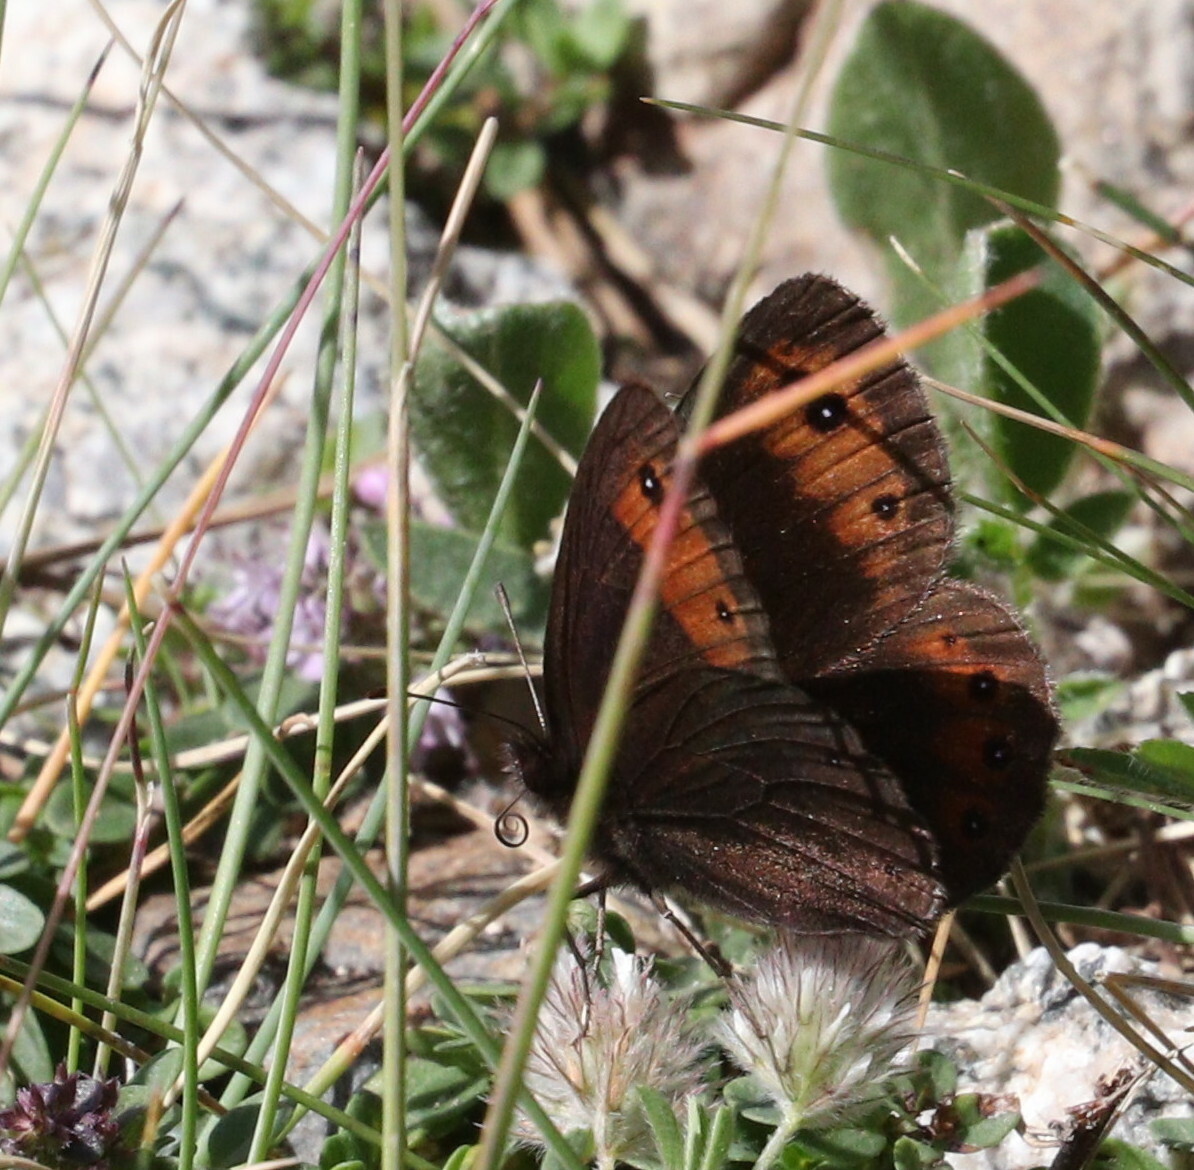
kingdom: Animalia
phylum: Arthropoda
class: Insecta
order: Lepidoptera
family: Nymphalidae
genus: Erebia
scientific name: Erebia meolans
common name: Piedmont ringlet
